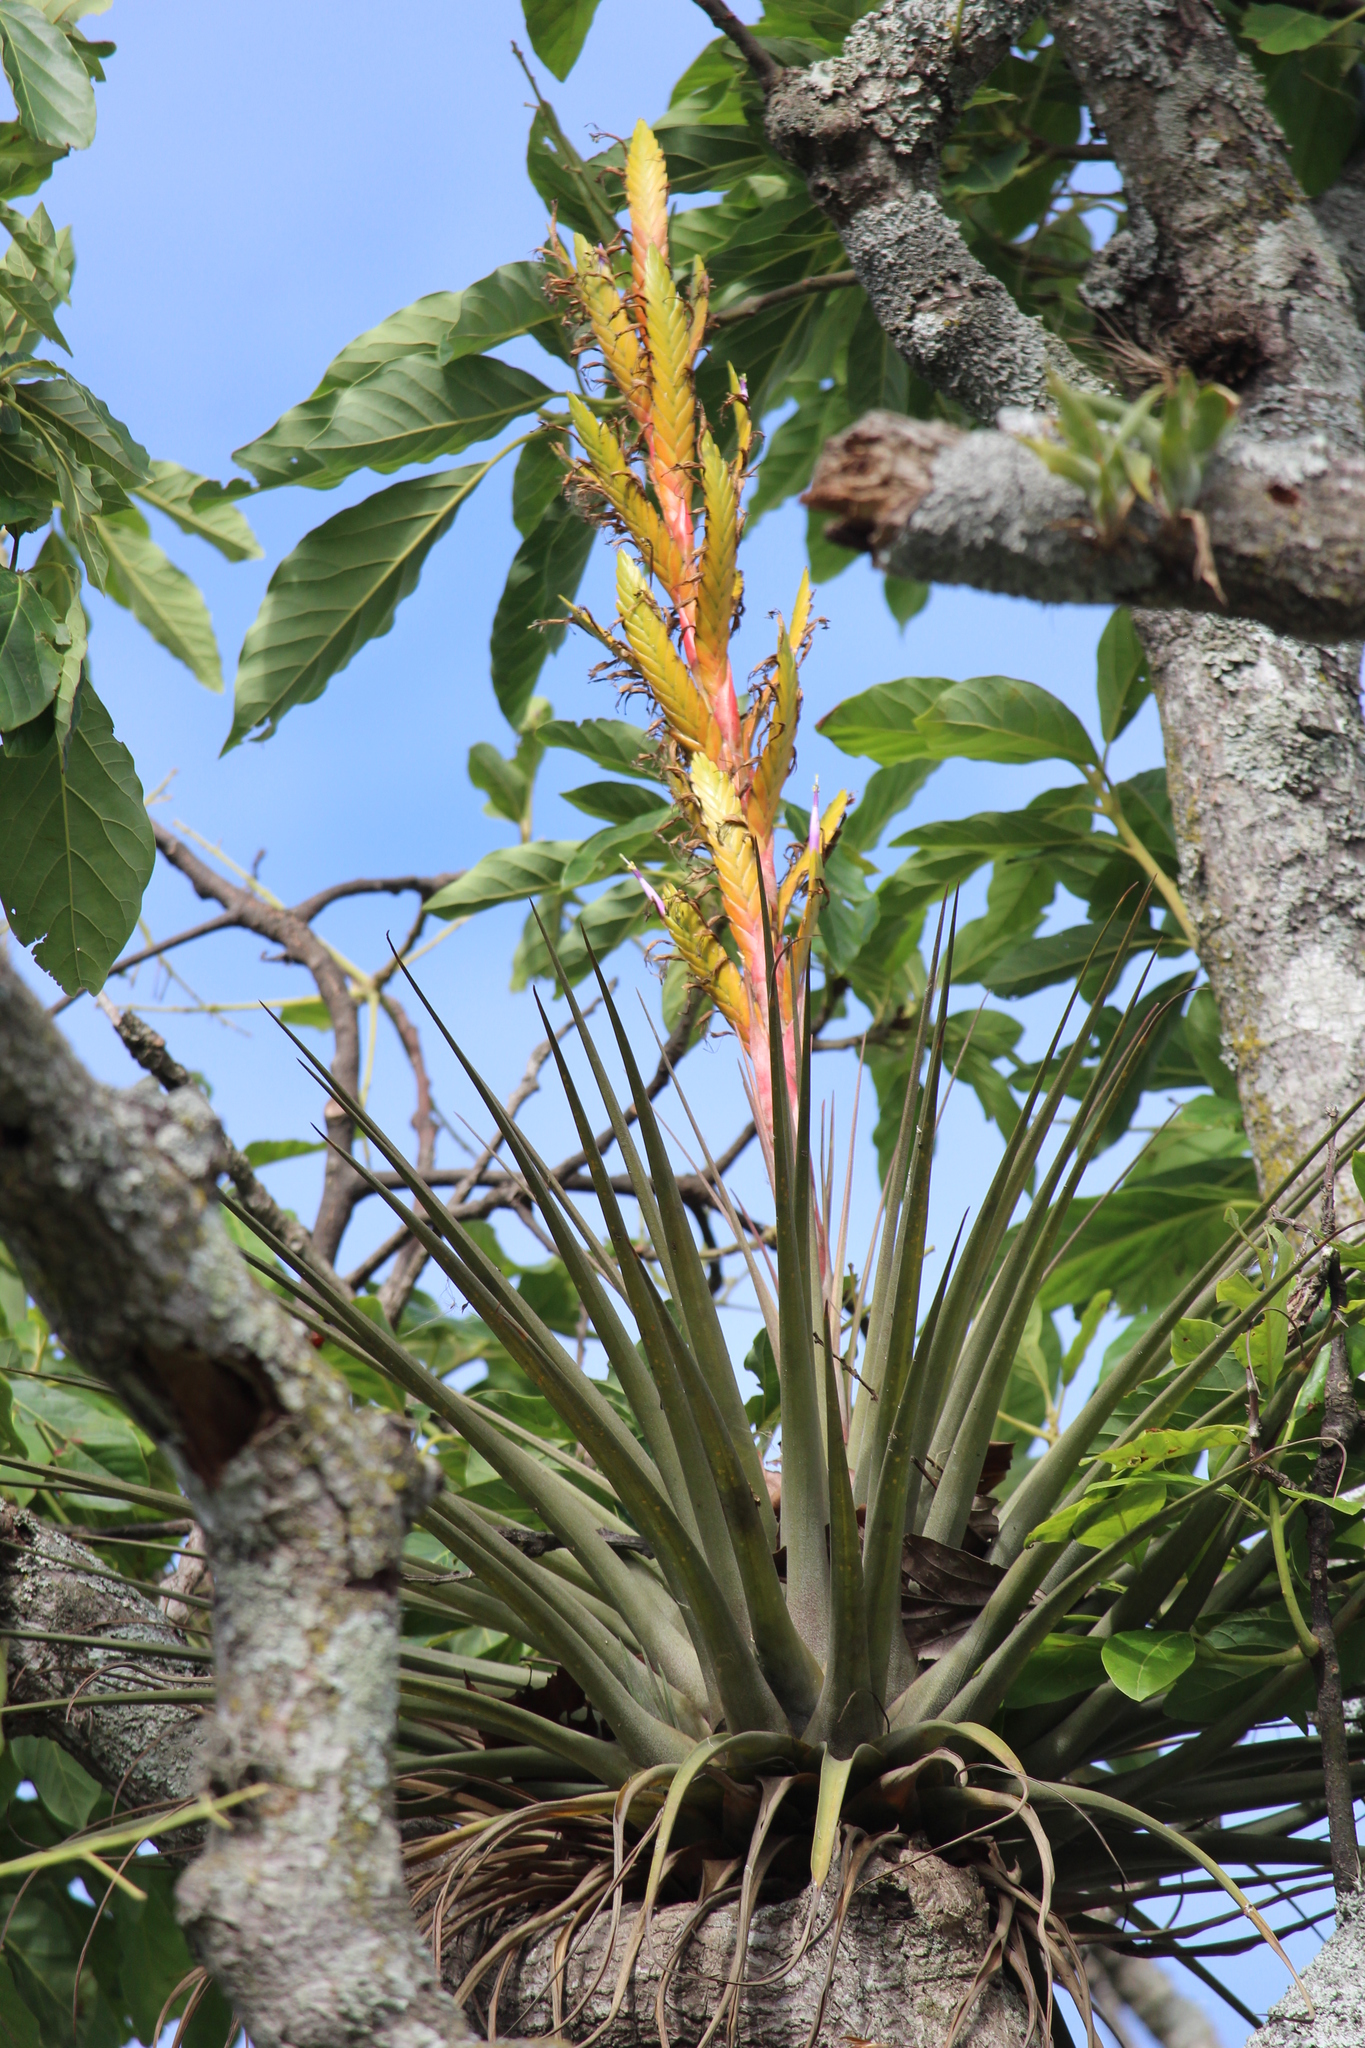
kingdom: Plantae
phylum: Tracheophyta
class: Liliopsida
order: Poales
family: Bromeliaceae
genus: Tillandsia
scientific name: Tillandsia rodrigueziana
